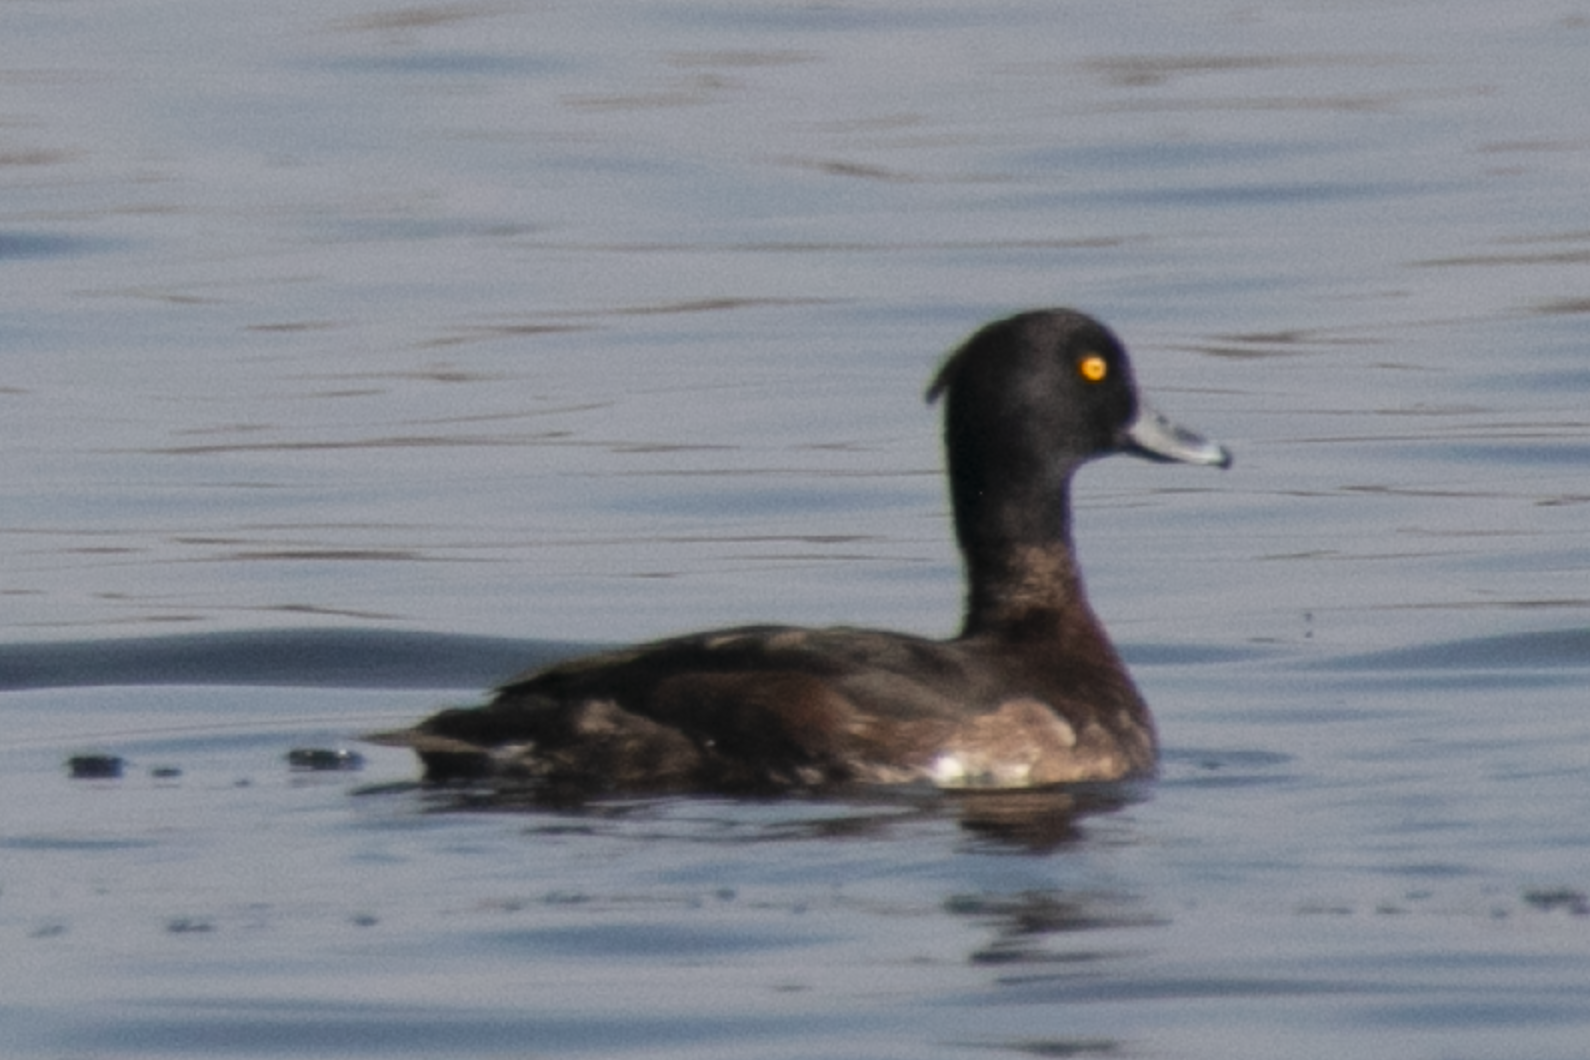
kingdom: Animalia
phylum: Chordata
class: Aves
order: Anseriformes
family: Anatidae
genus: Aythya
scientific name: Aythya fuligula
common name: Tufted duck
